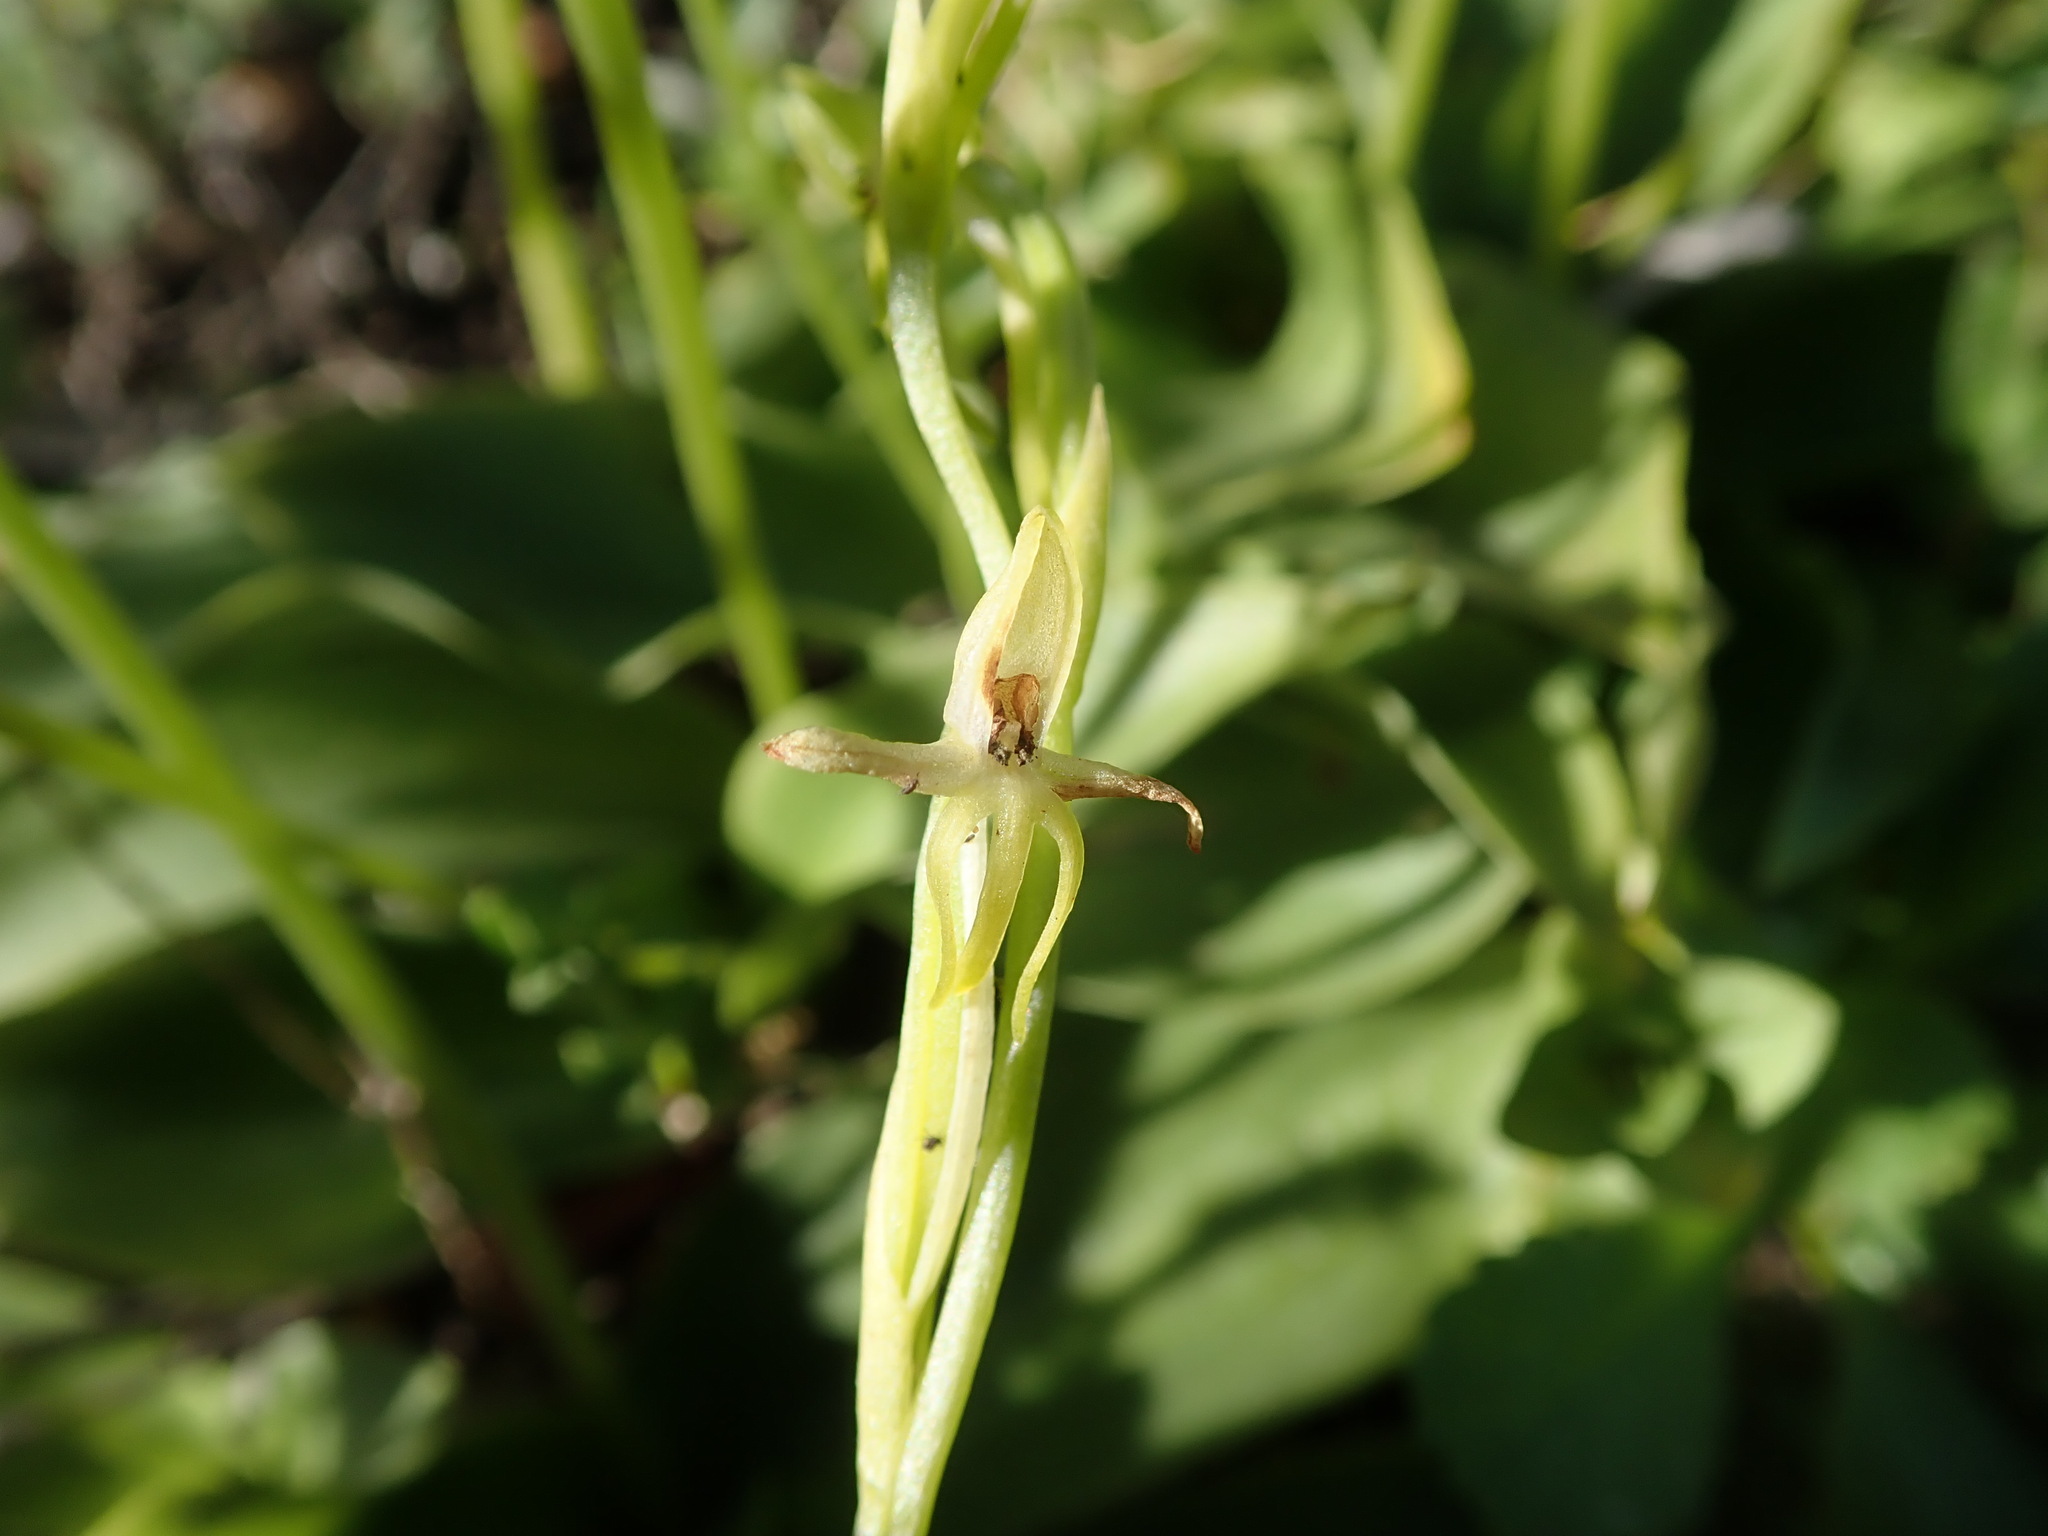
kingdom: Plantae
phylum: Tracheophyta
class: Liliopsida
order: Asparagales
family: Orchidaceae
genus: Habenaria
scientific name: Habenaria tridactylites
